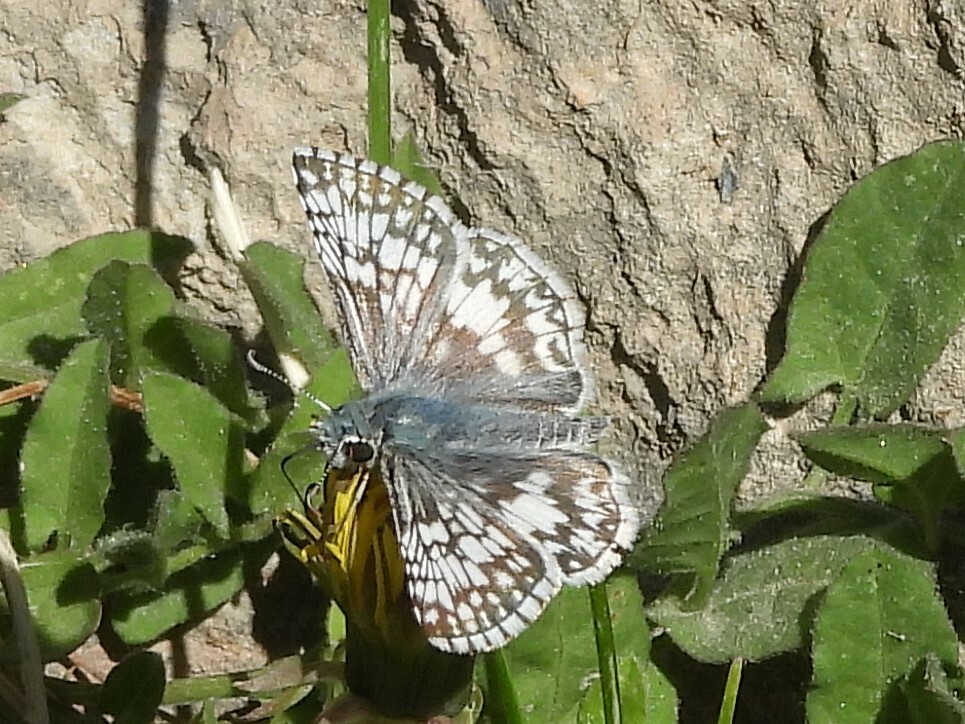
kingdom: Animalia
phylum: Arthropoda
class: Insecta
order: Lepidoptera
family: Hesperiidae
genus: Burnsius
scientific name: Burnsius communis
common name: Common checkered-skipper
